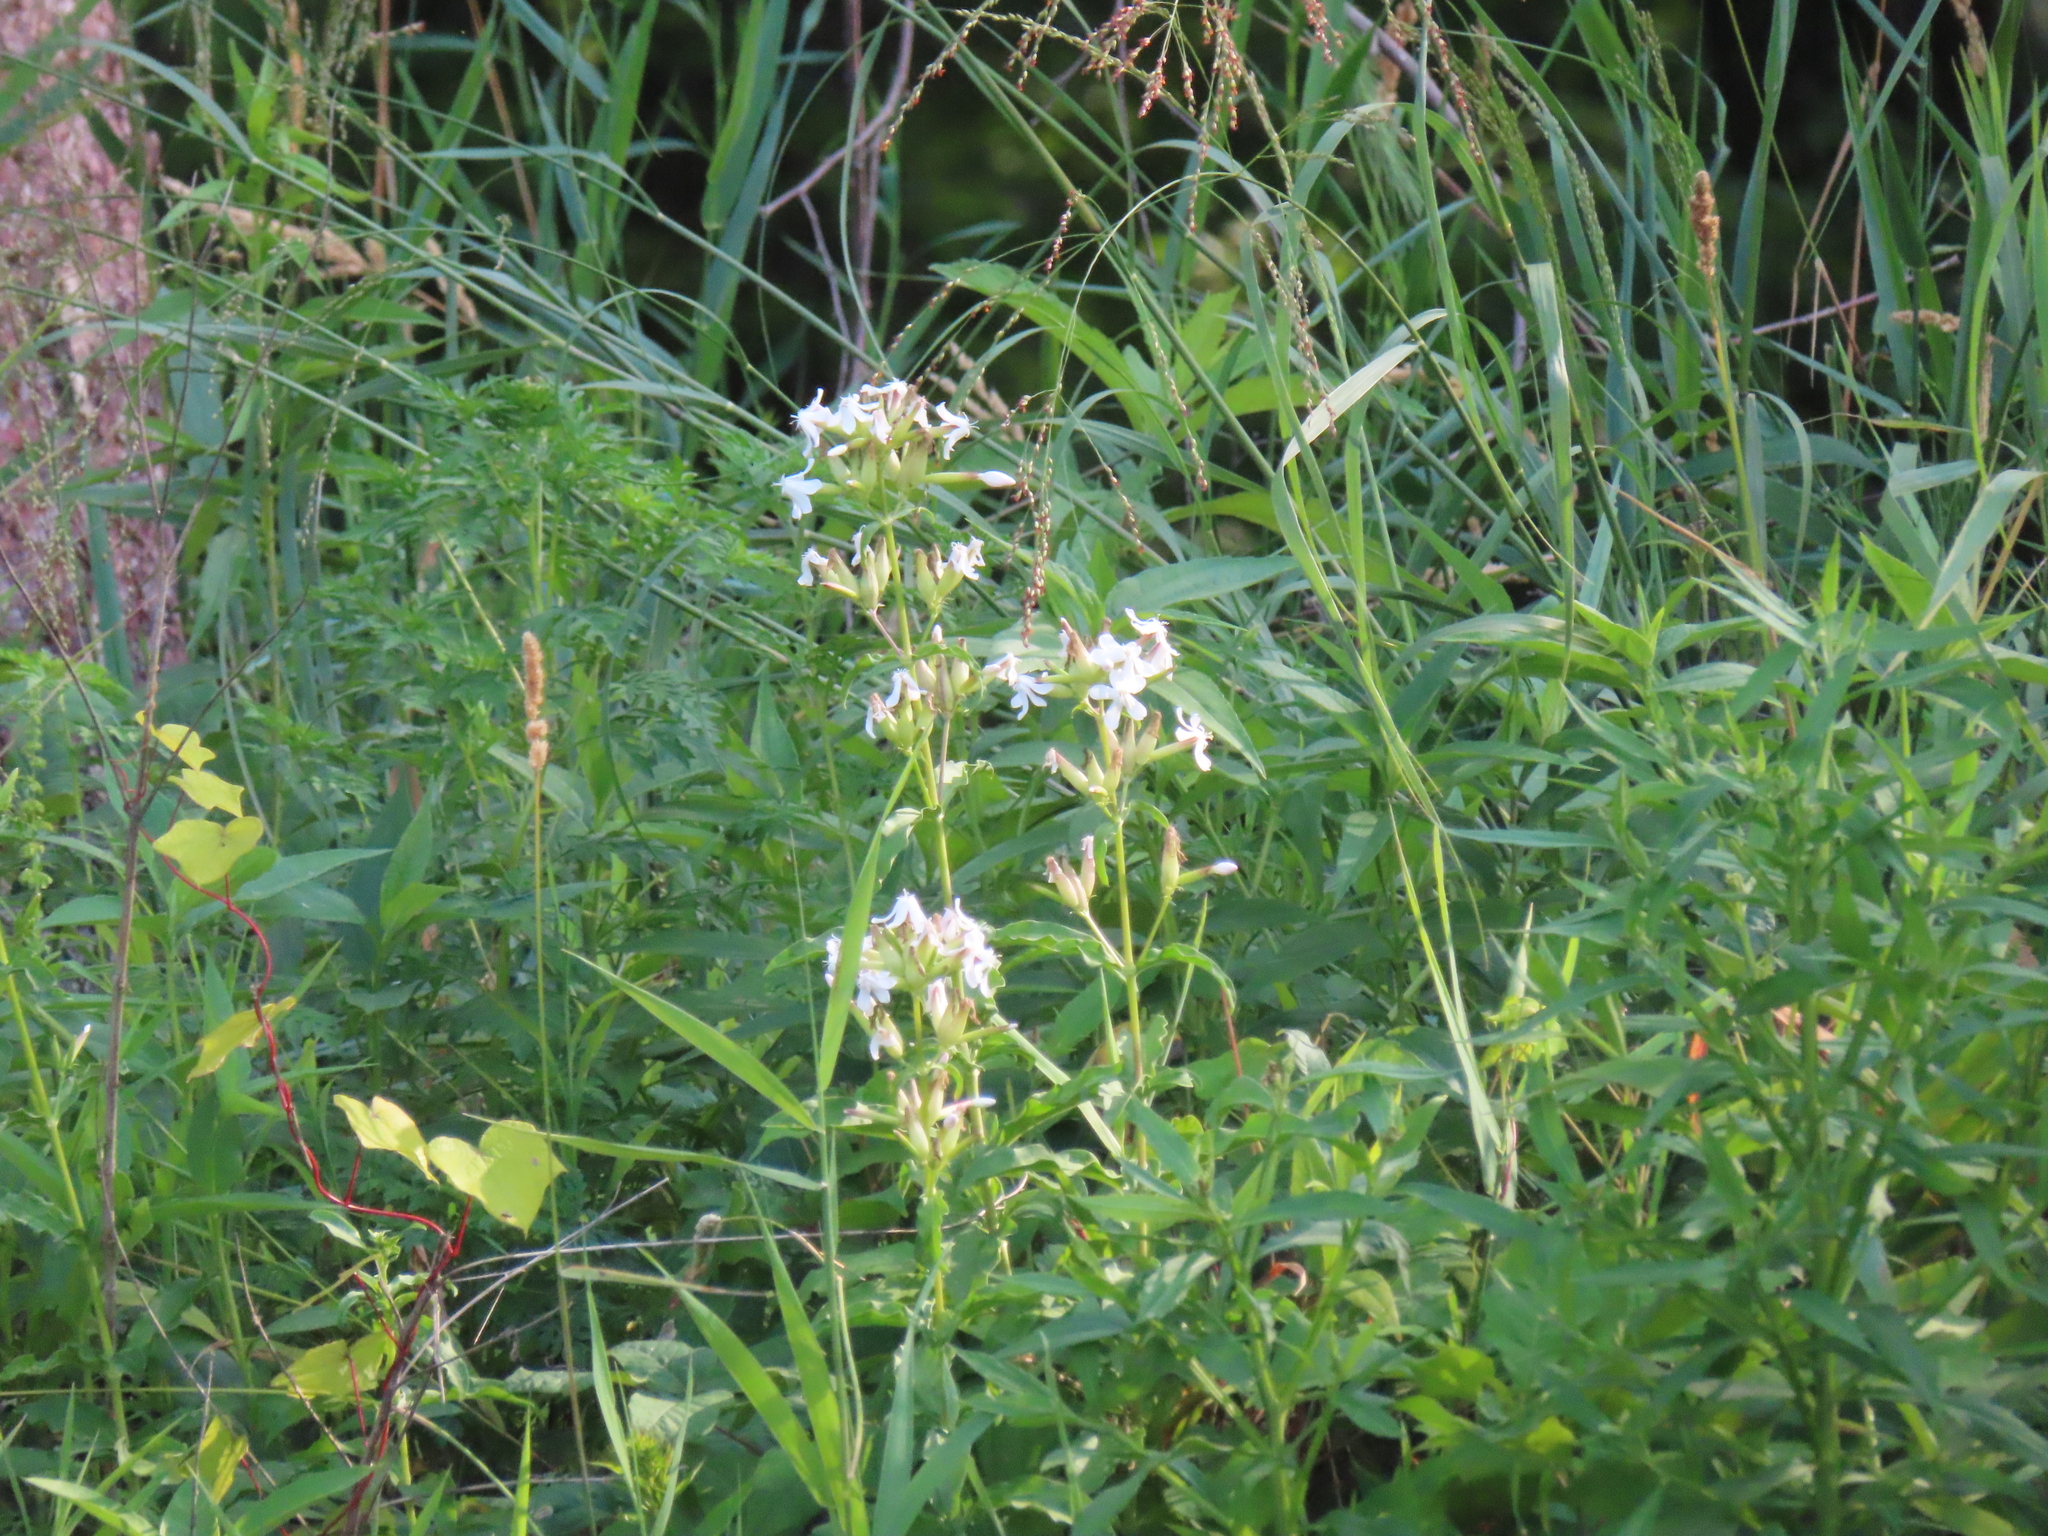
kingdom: Plantae
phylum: Tracheophyta
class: Magnoliopsida
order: Caryophyllales
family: Caryophyllaceae
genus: Saponaria
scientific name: Saponaria officinalis
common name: Soapwort
